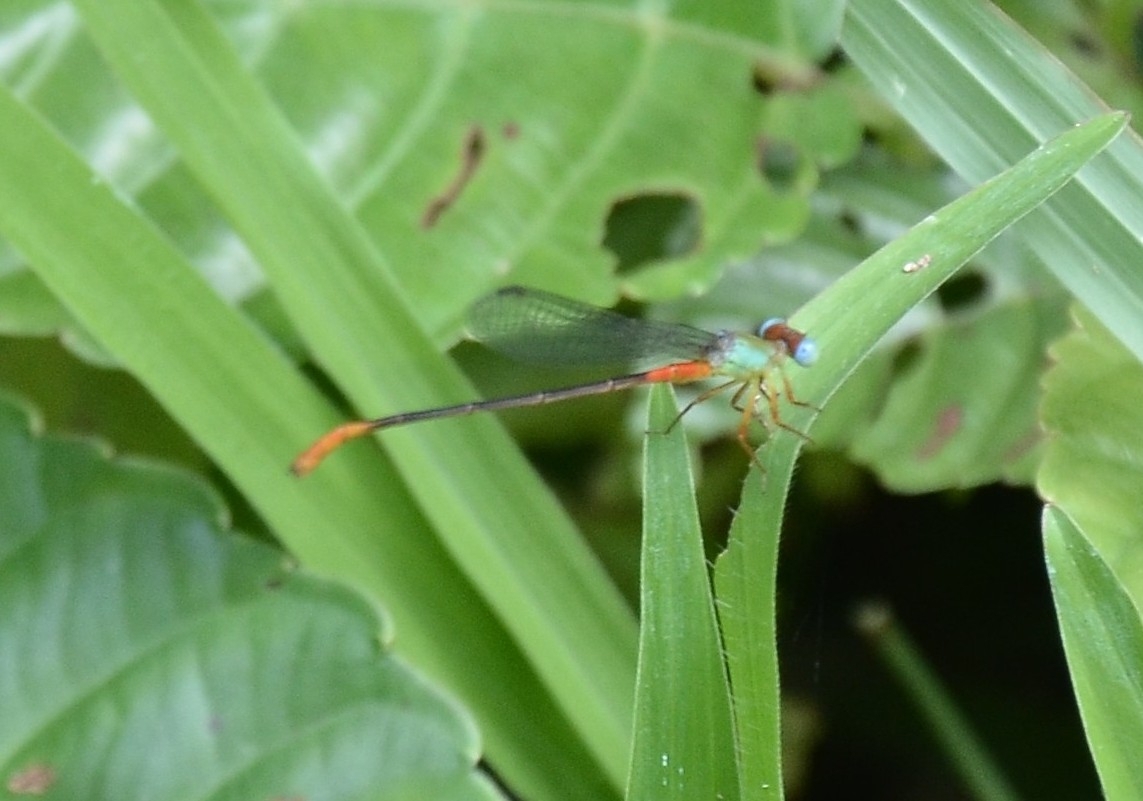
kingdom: Animalia
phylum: Arthropoda
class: Insecta
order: Odonata
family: Coenagrionidae
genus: Ceriagrion
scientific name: Ceriagrion cerinorubellum
